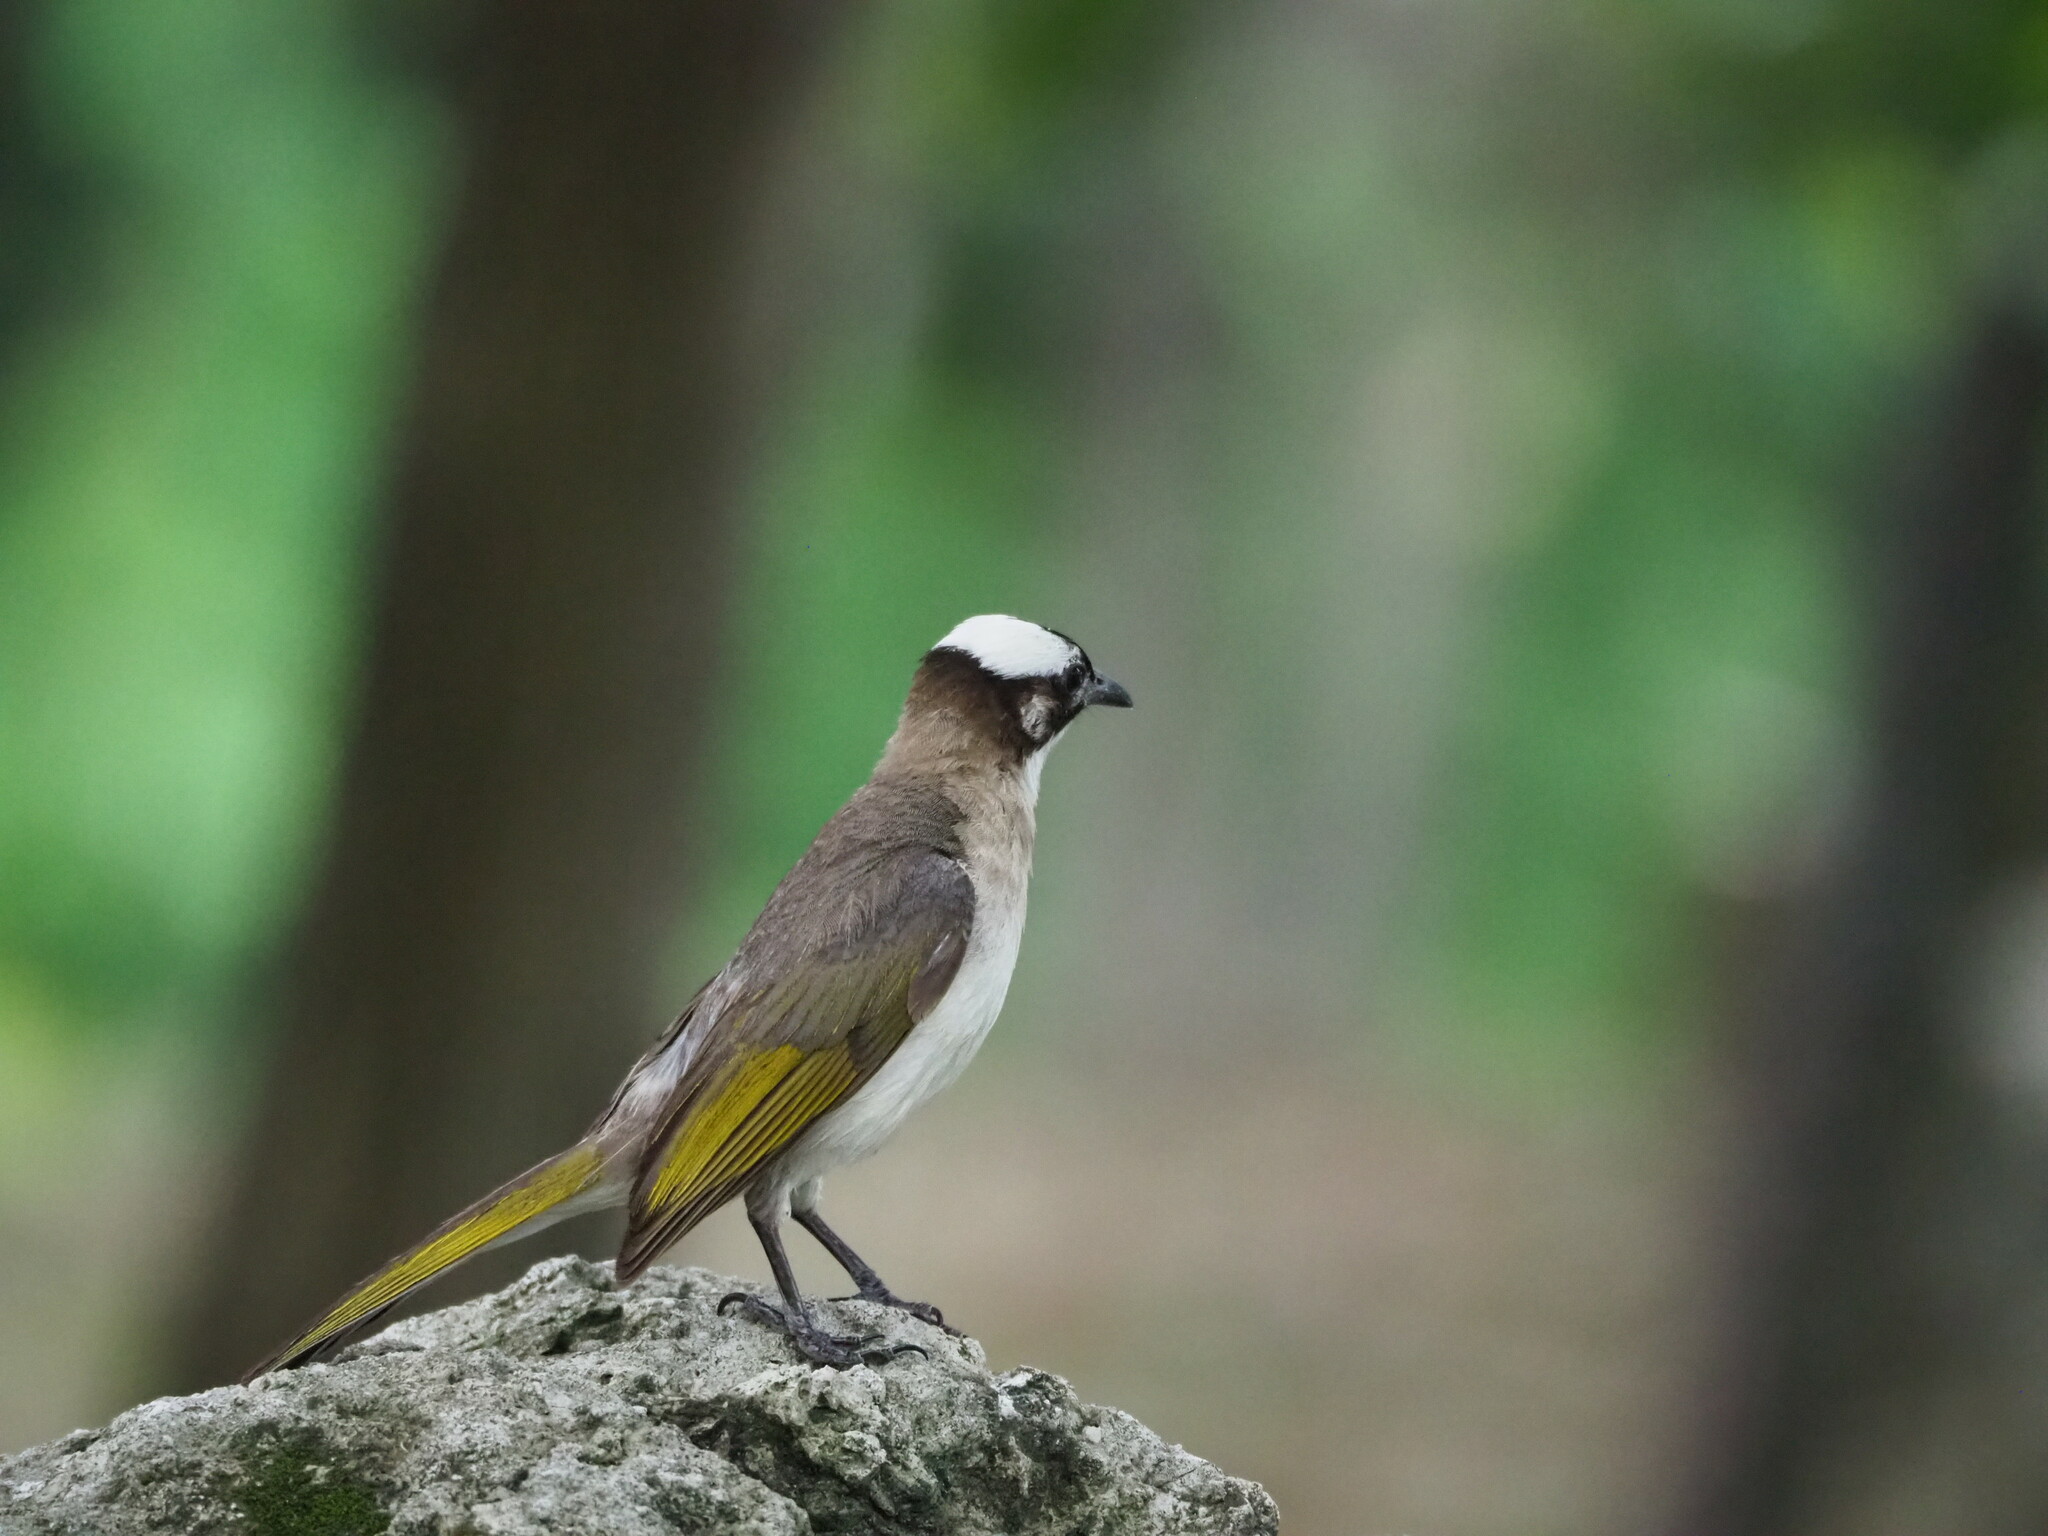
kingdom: Animalia
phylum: Chordata
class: Aves
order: Passeriformes
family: Pycnonotidae
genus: Pycnonotus
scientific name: Pycnonotus sinensis
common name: Light-vented bulbul
